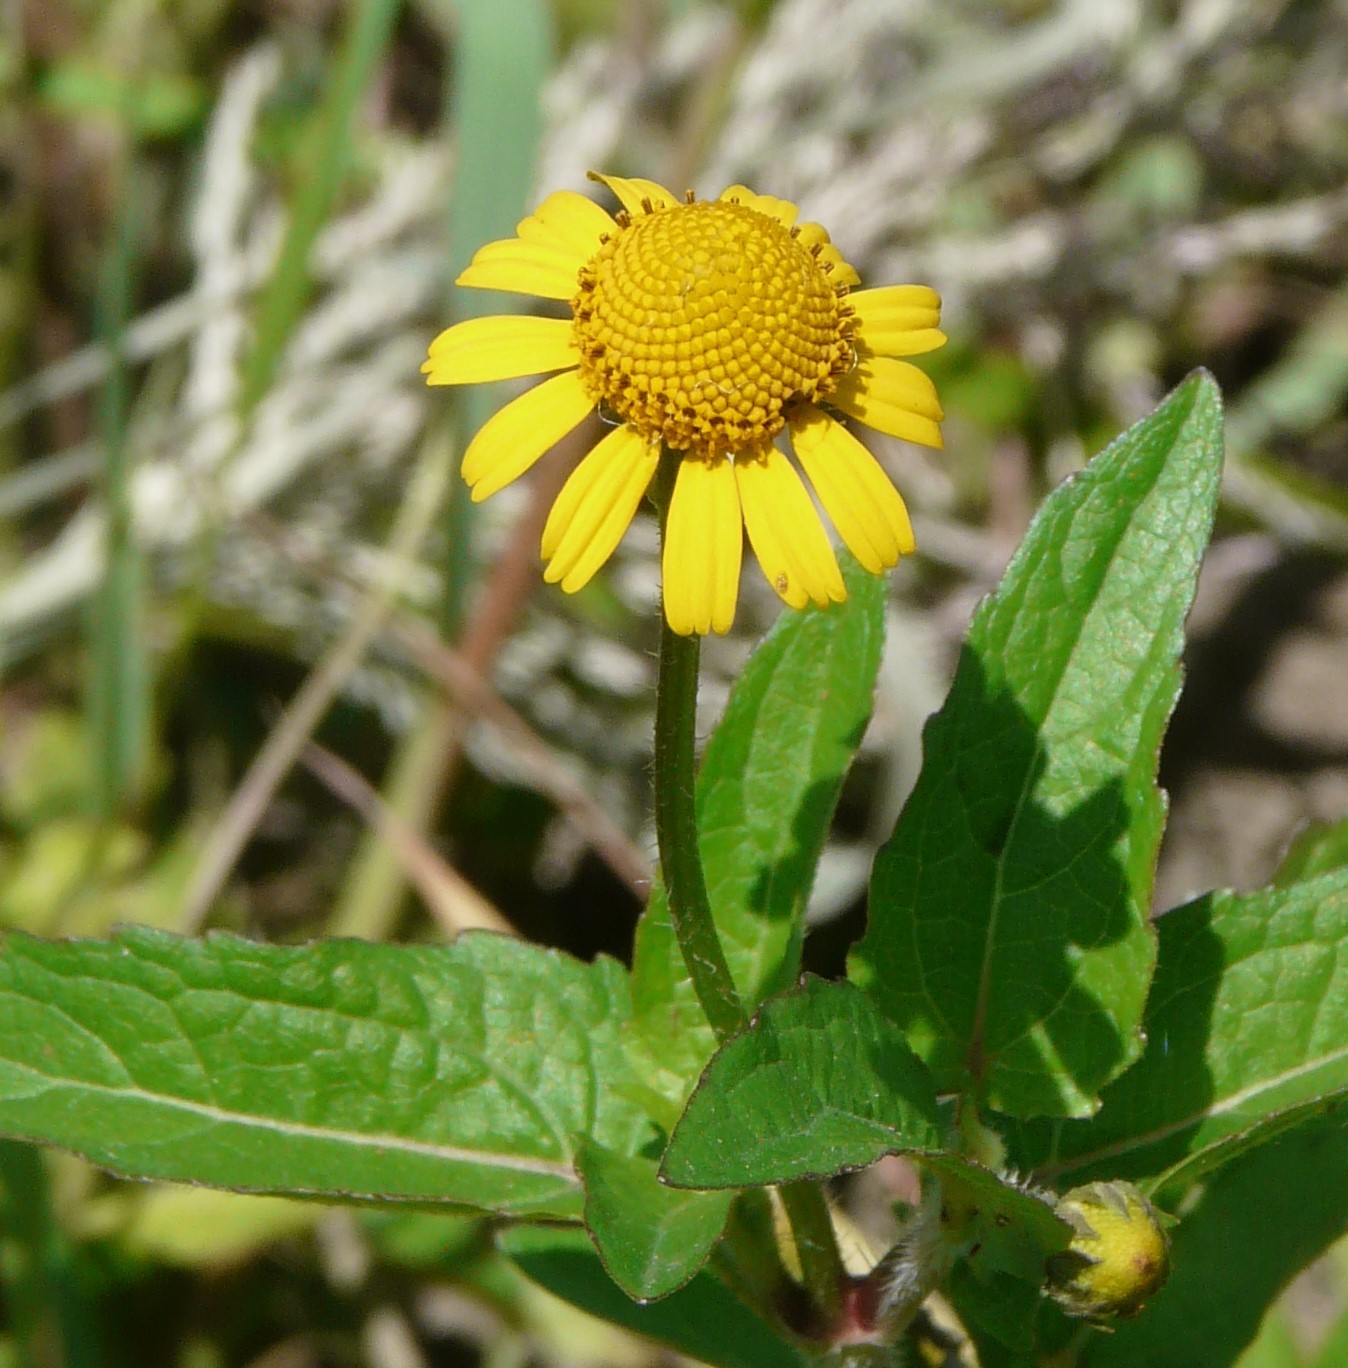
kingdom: Plantae
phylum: Tracheophyta
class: Magnoliopsida
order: Asterales
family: Asteraceae
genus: Acmella
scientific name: Acmella repens
